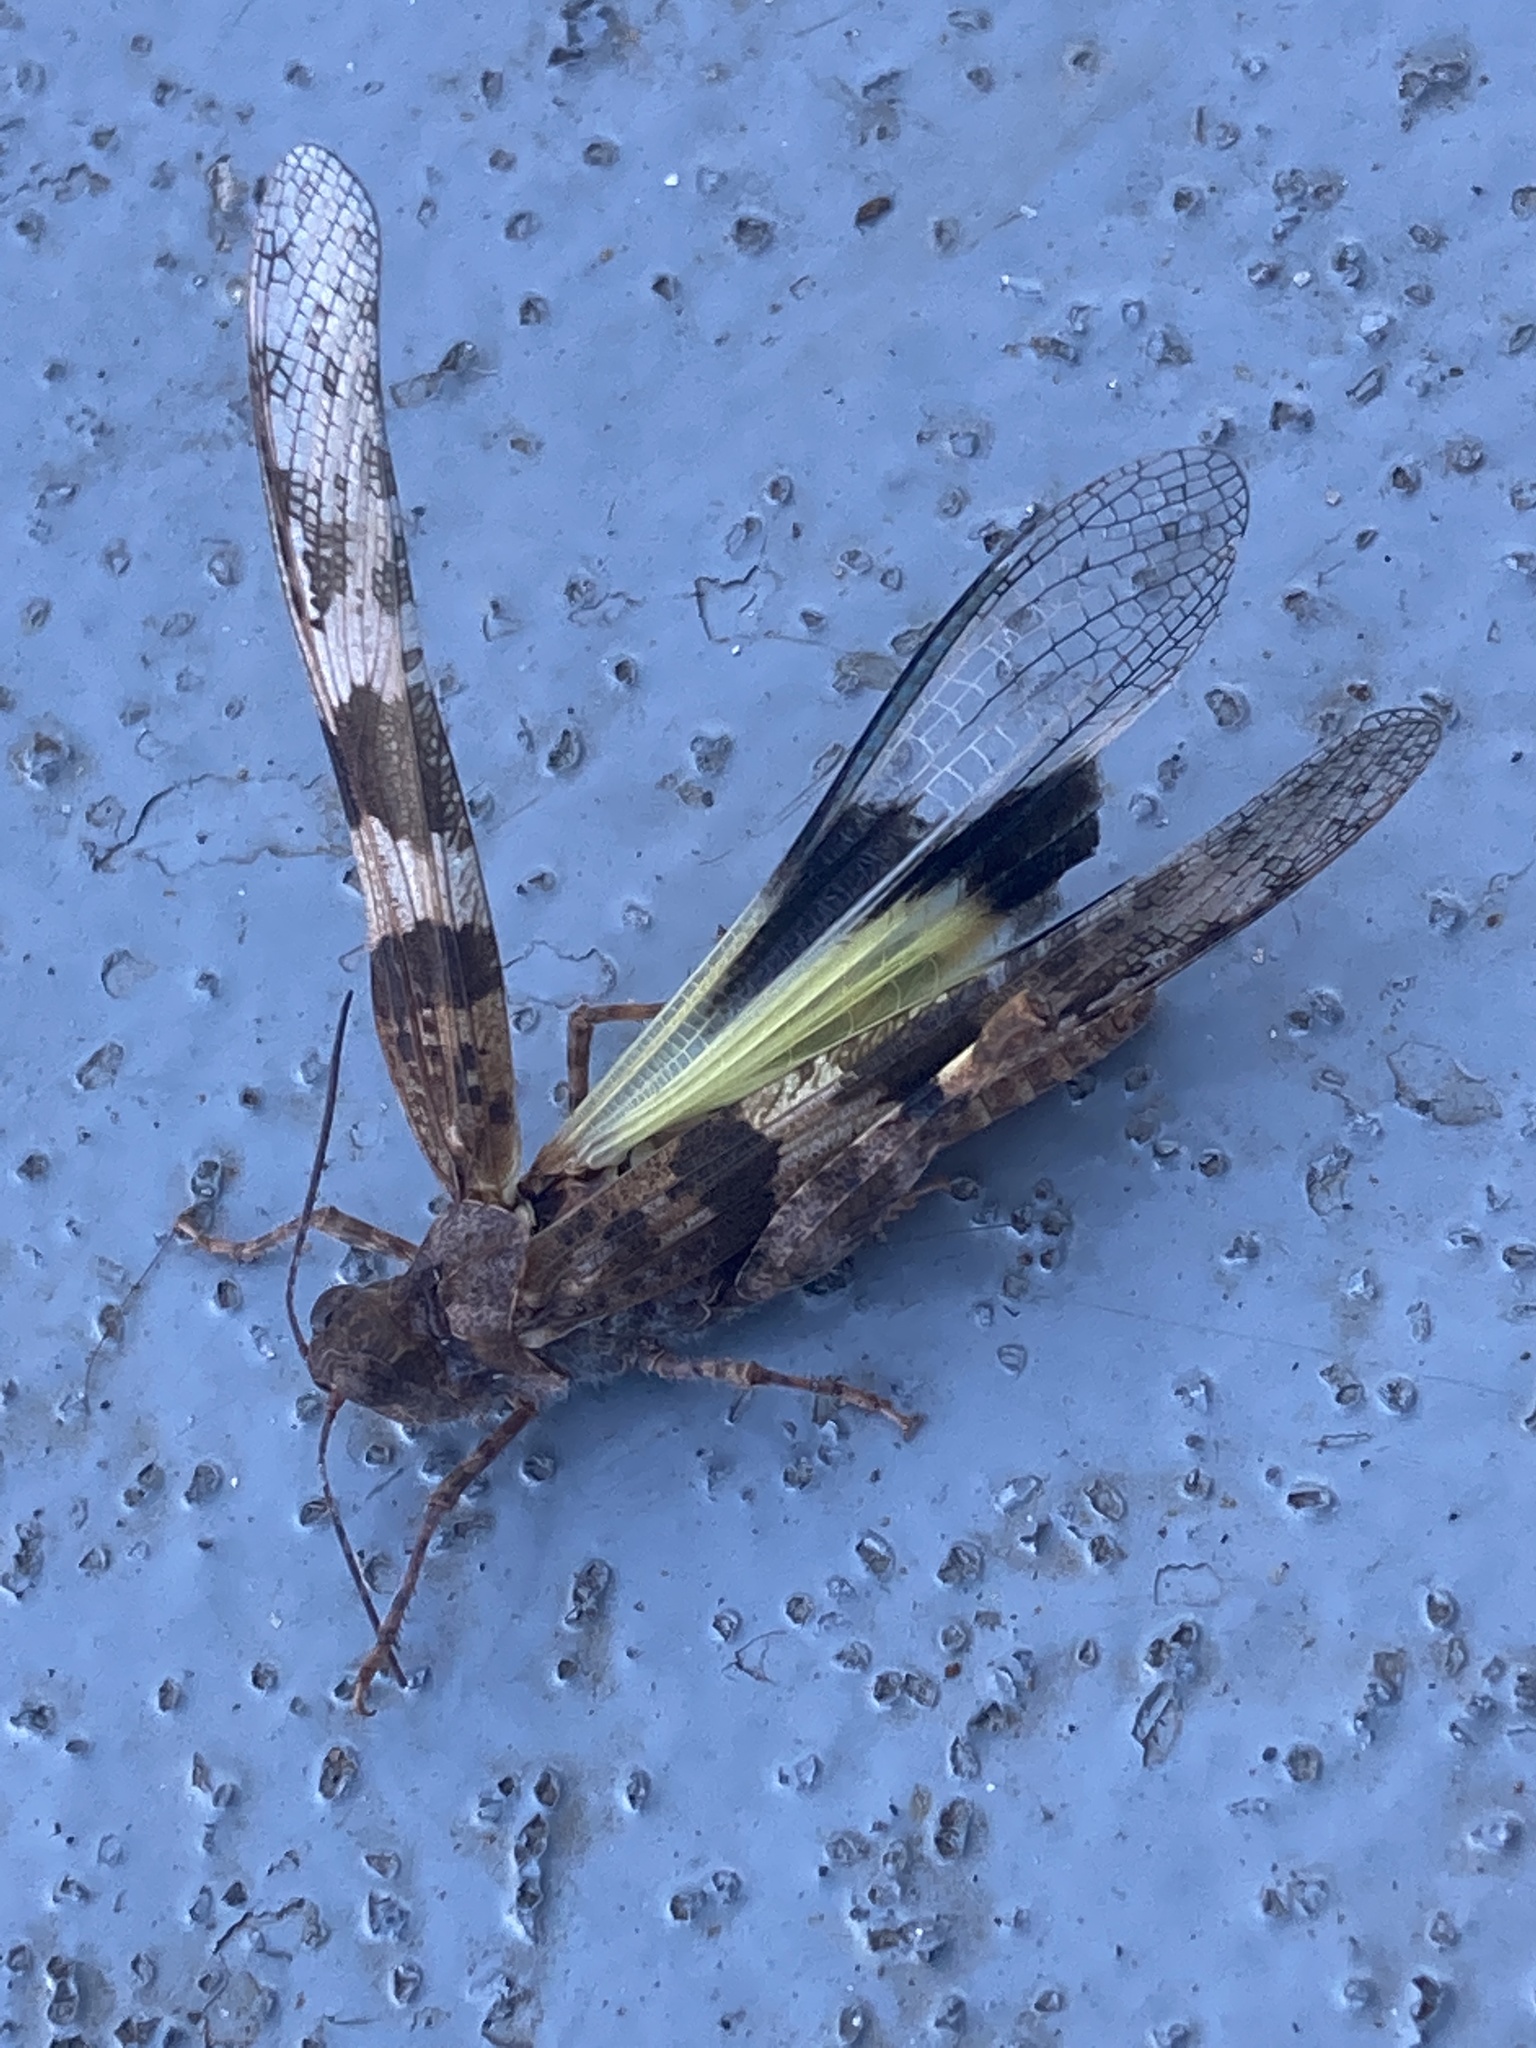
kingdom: Animalia
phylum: Arthropoda
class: Insecta
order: Orthoptera
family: Acrididae
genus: Trimerotropis
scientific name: Trimerotropis pallidipennis
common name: Pallid-winged grasshopper
